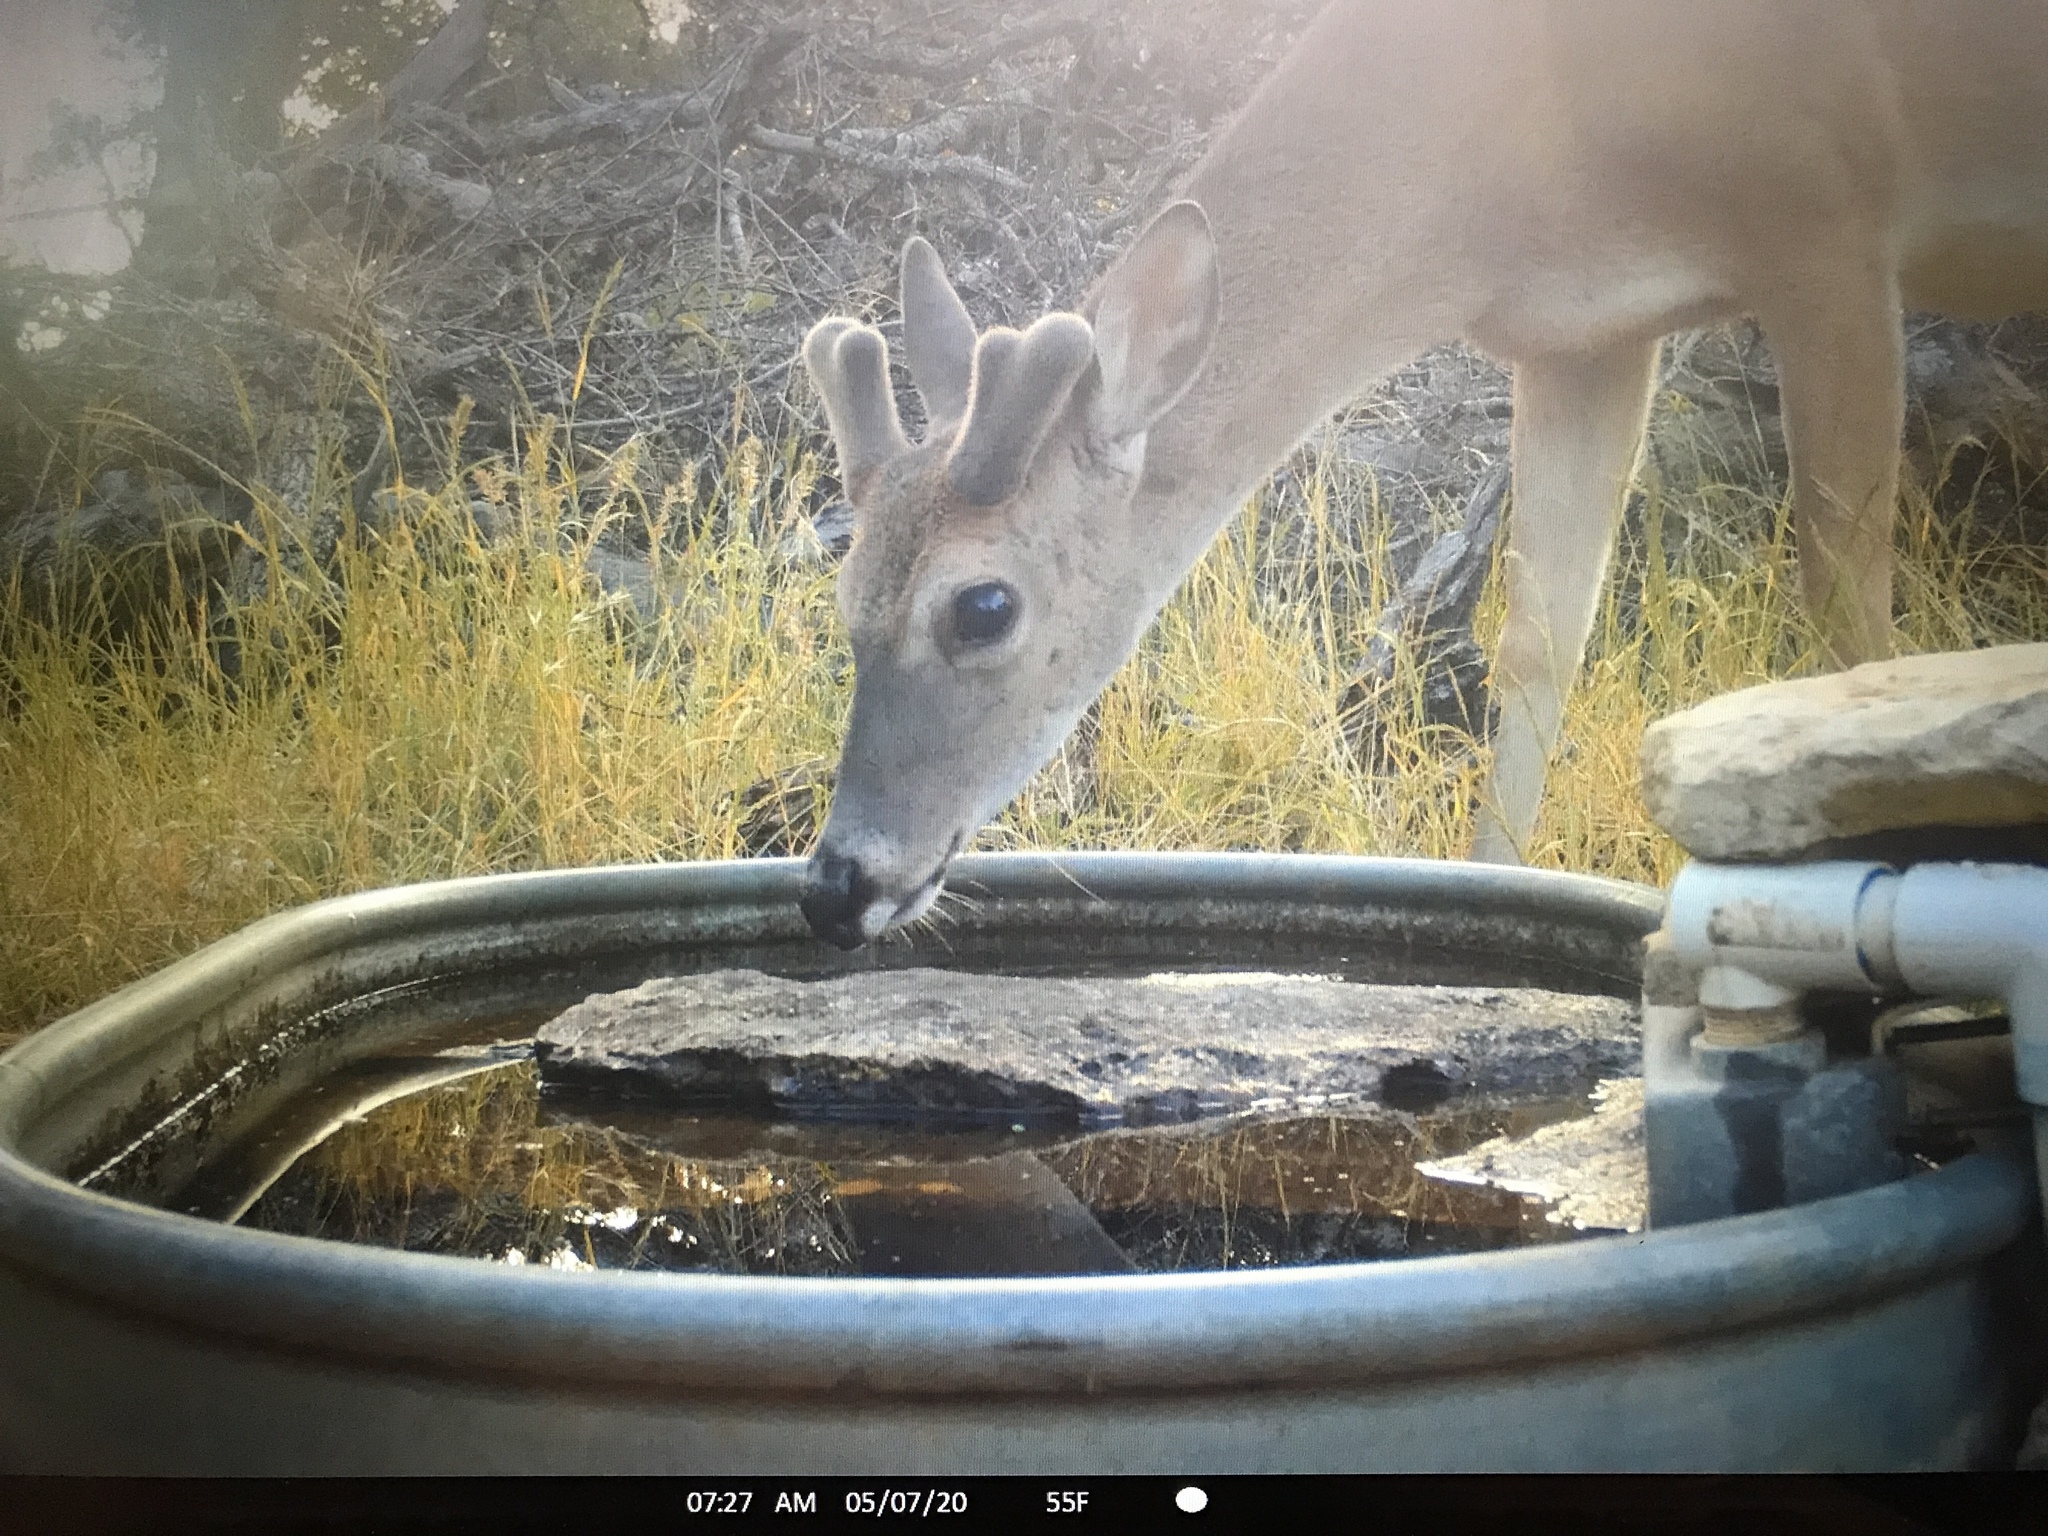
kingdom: Animalia
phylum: Chordata
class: Mammalia
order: Artiodactyla
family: Cervidae
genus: Odocoileus
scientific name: Odocoileus virginianus
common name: White-tailed deer
